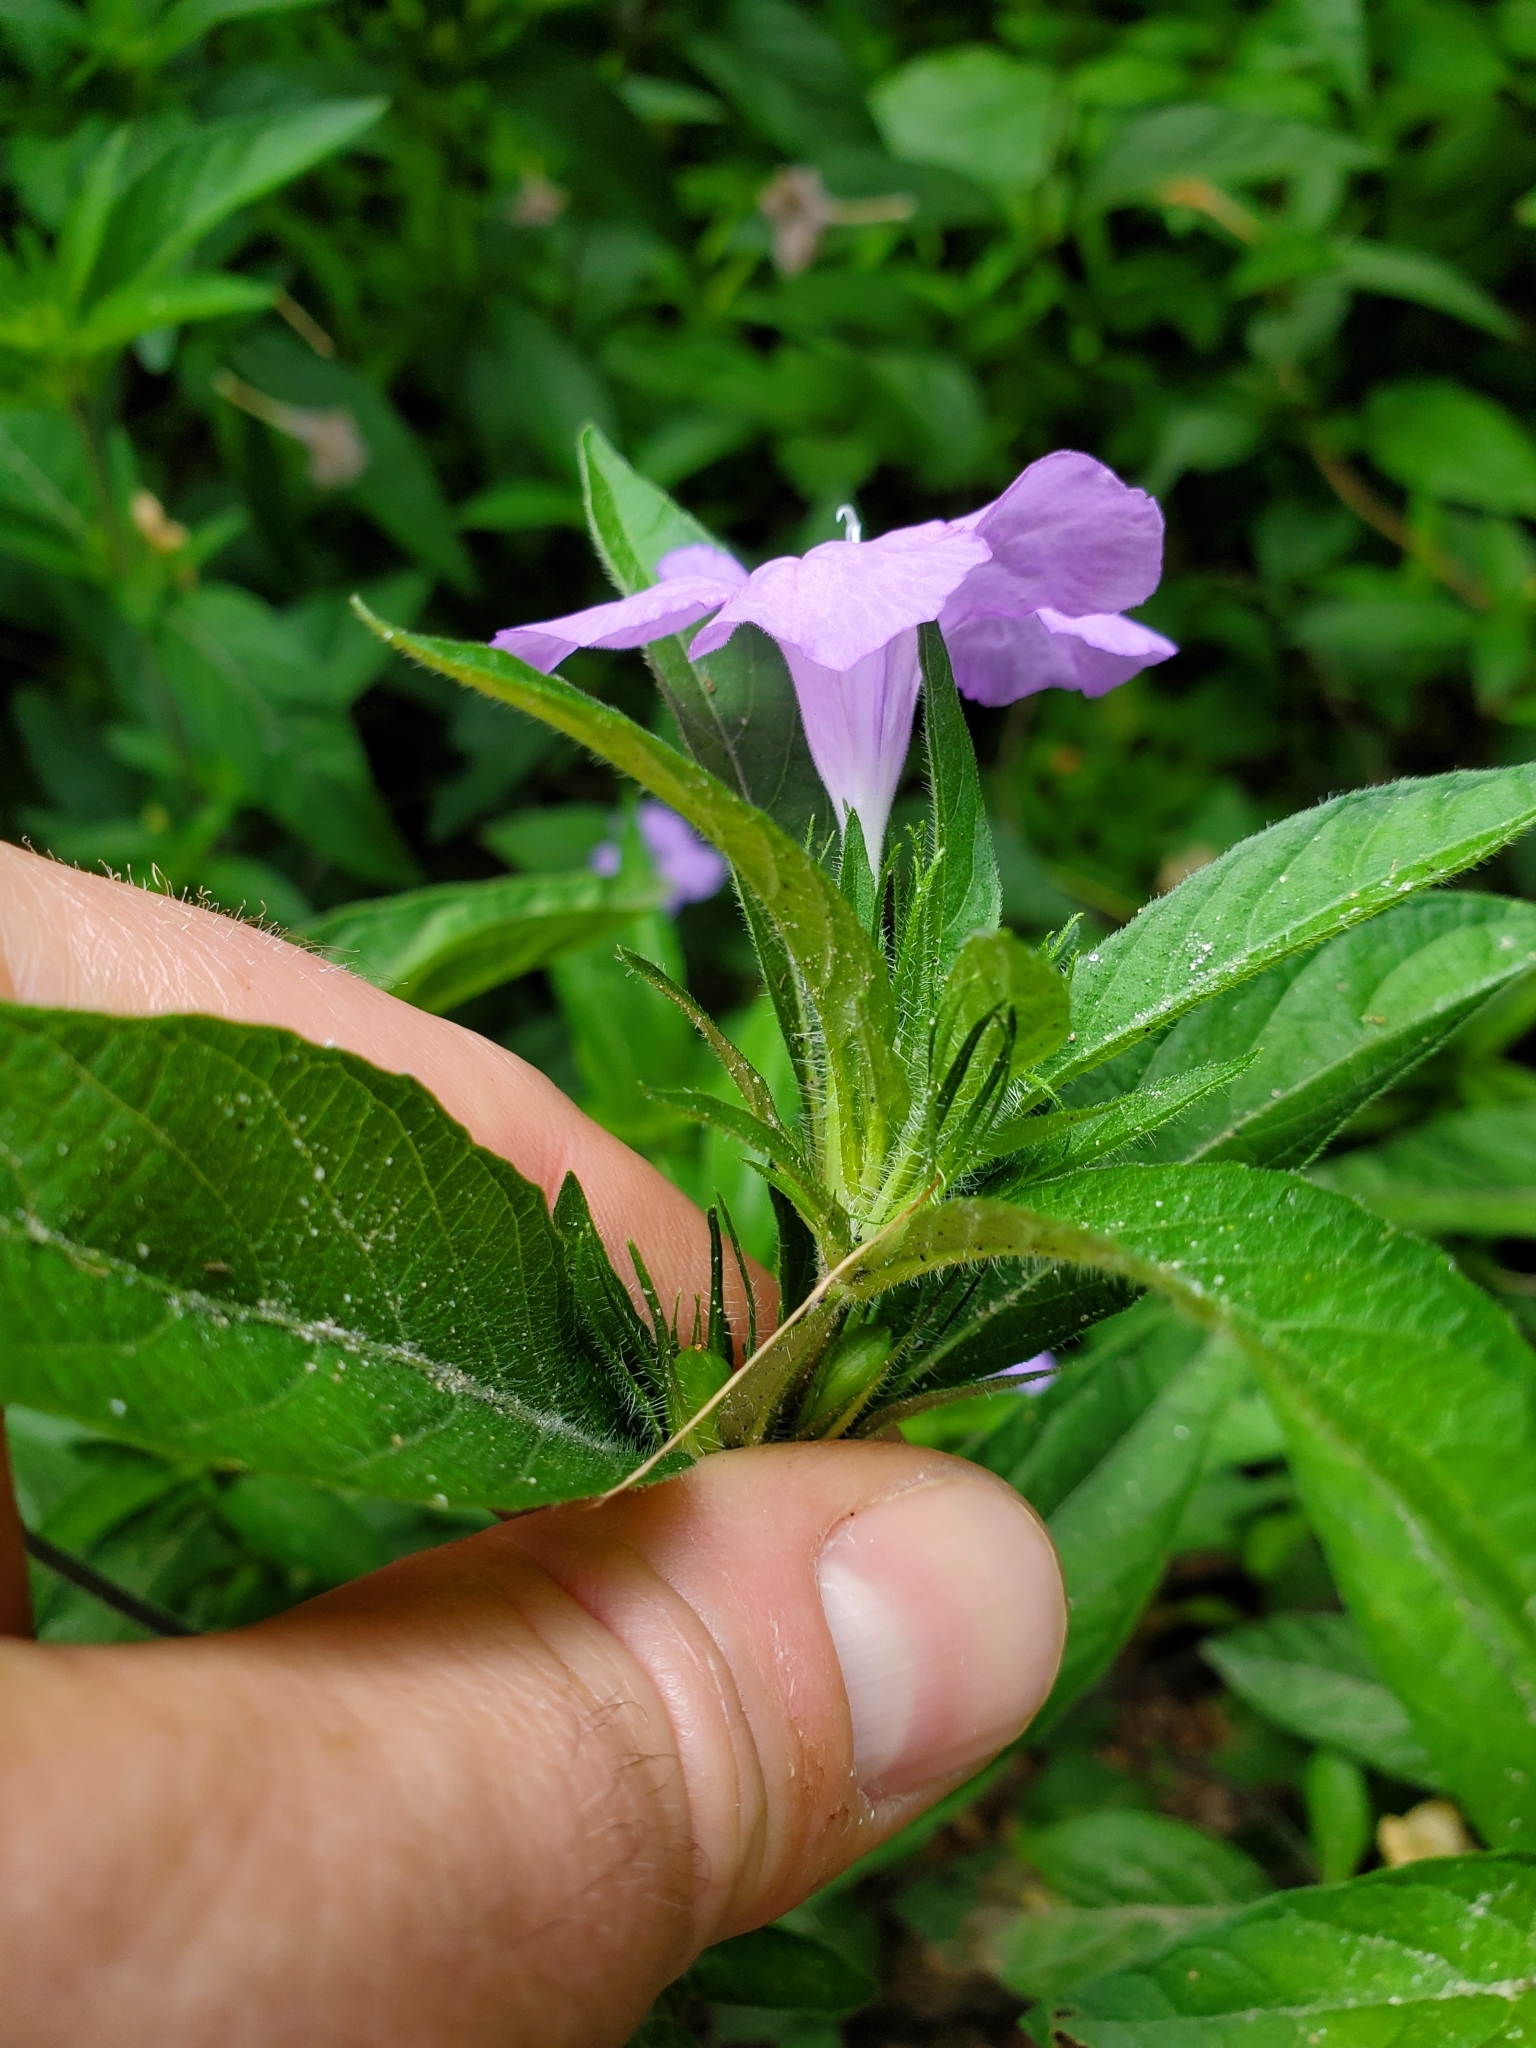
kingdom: Plantae
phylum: Tracheophyta
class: Magnoliopsida
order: Lamiales
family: Acanthaceae
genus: Ruellia
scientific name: Ruellia caroliniensis
